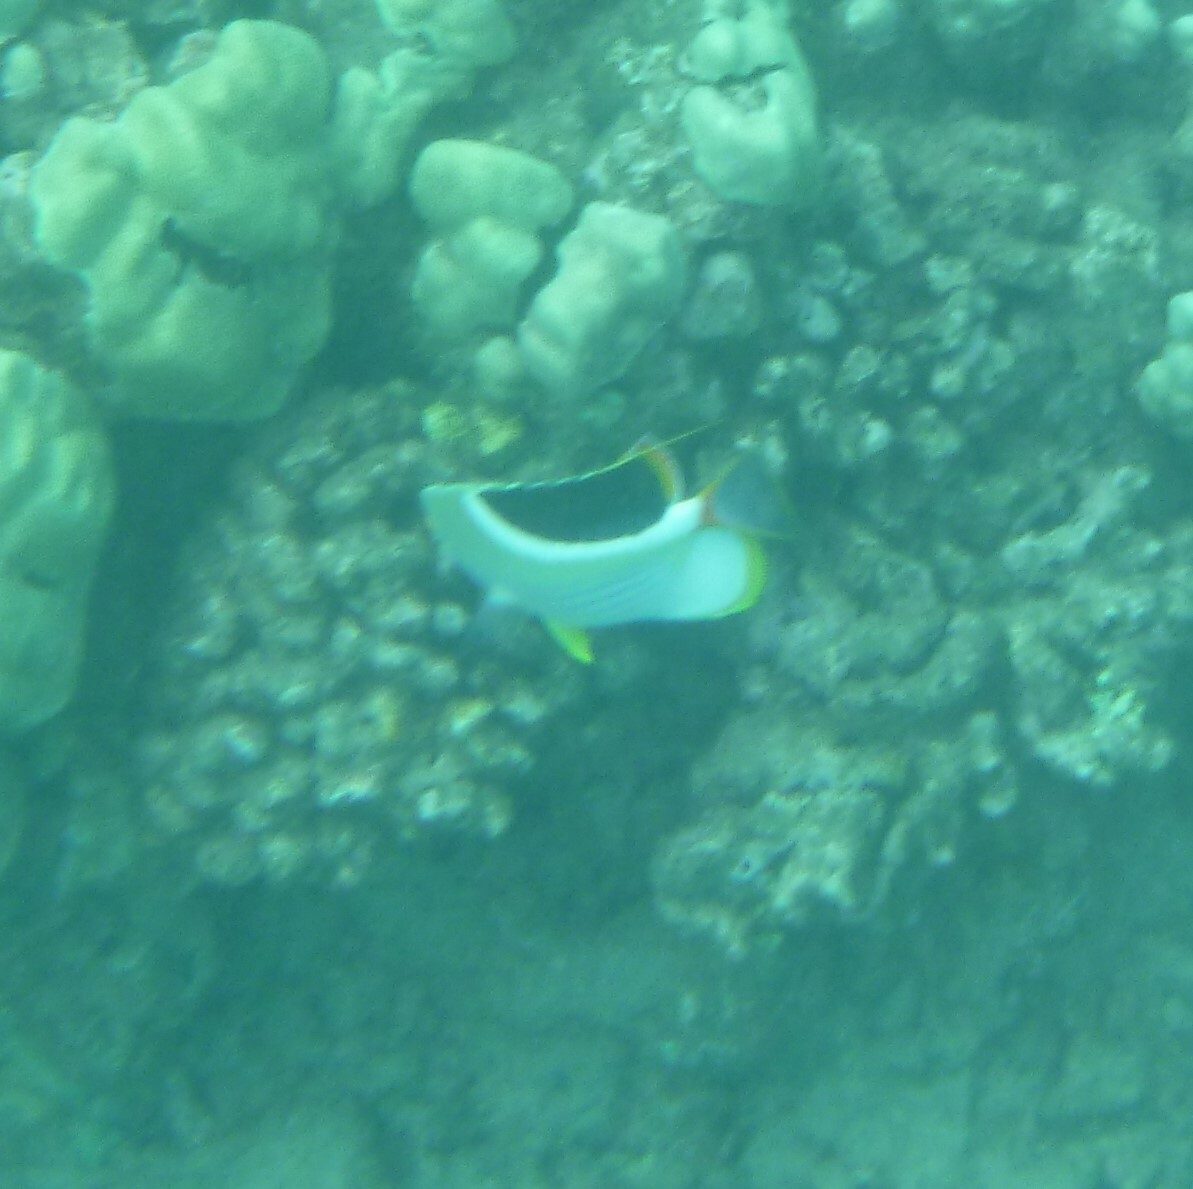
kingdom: Animalia
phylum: Chordata
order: Perciformes
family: Chaetodontidae
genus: Chaetodon
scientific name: Chaetodon ephippium
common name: Saddled butterflyfish
